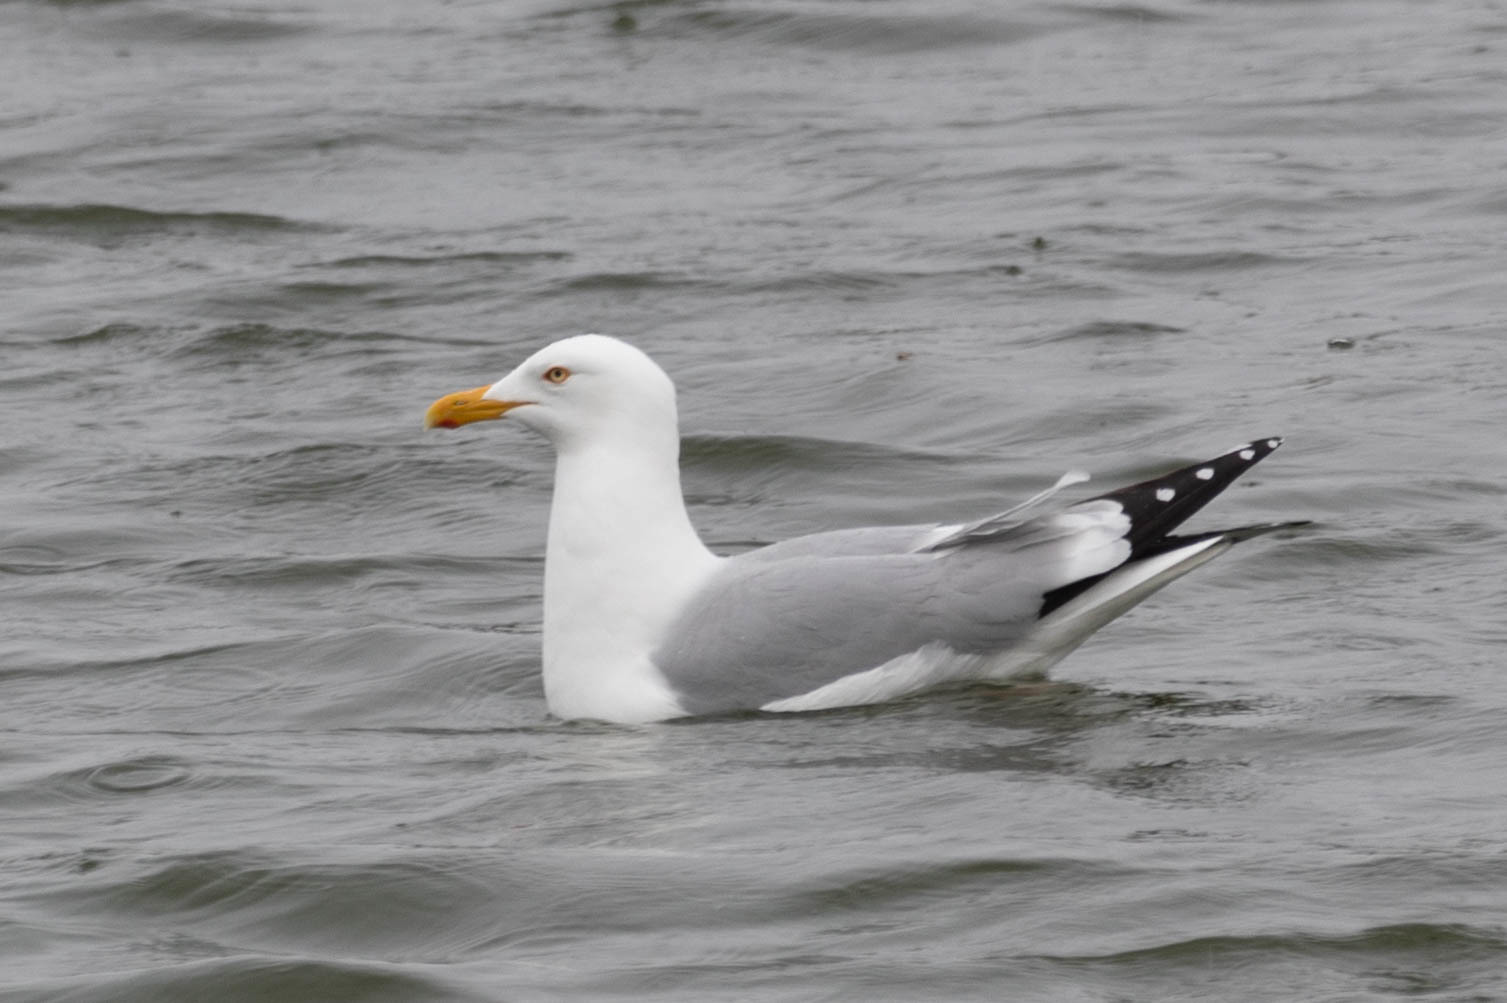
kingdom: Animalia
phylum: Chordata
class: Aves
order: Charadriiformes
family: Laridae
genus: Larus
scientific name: Larus argentatus
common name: Herring gull
